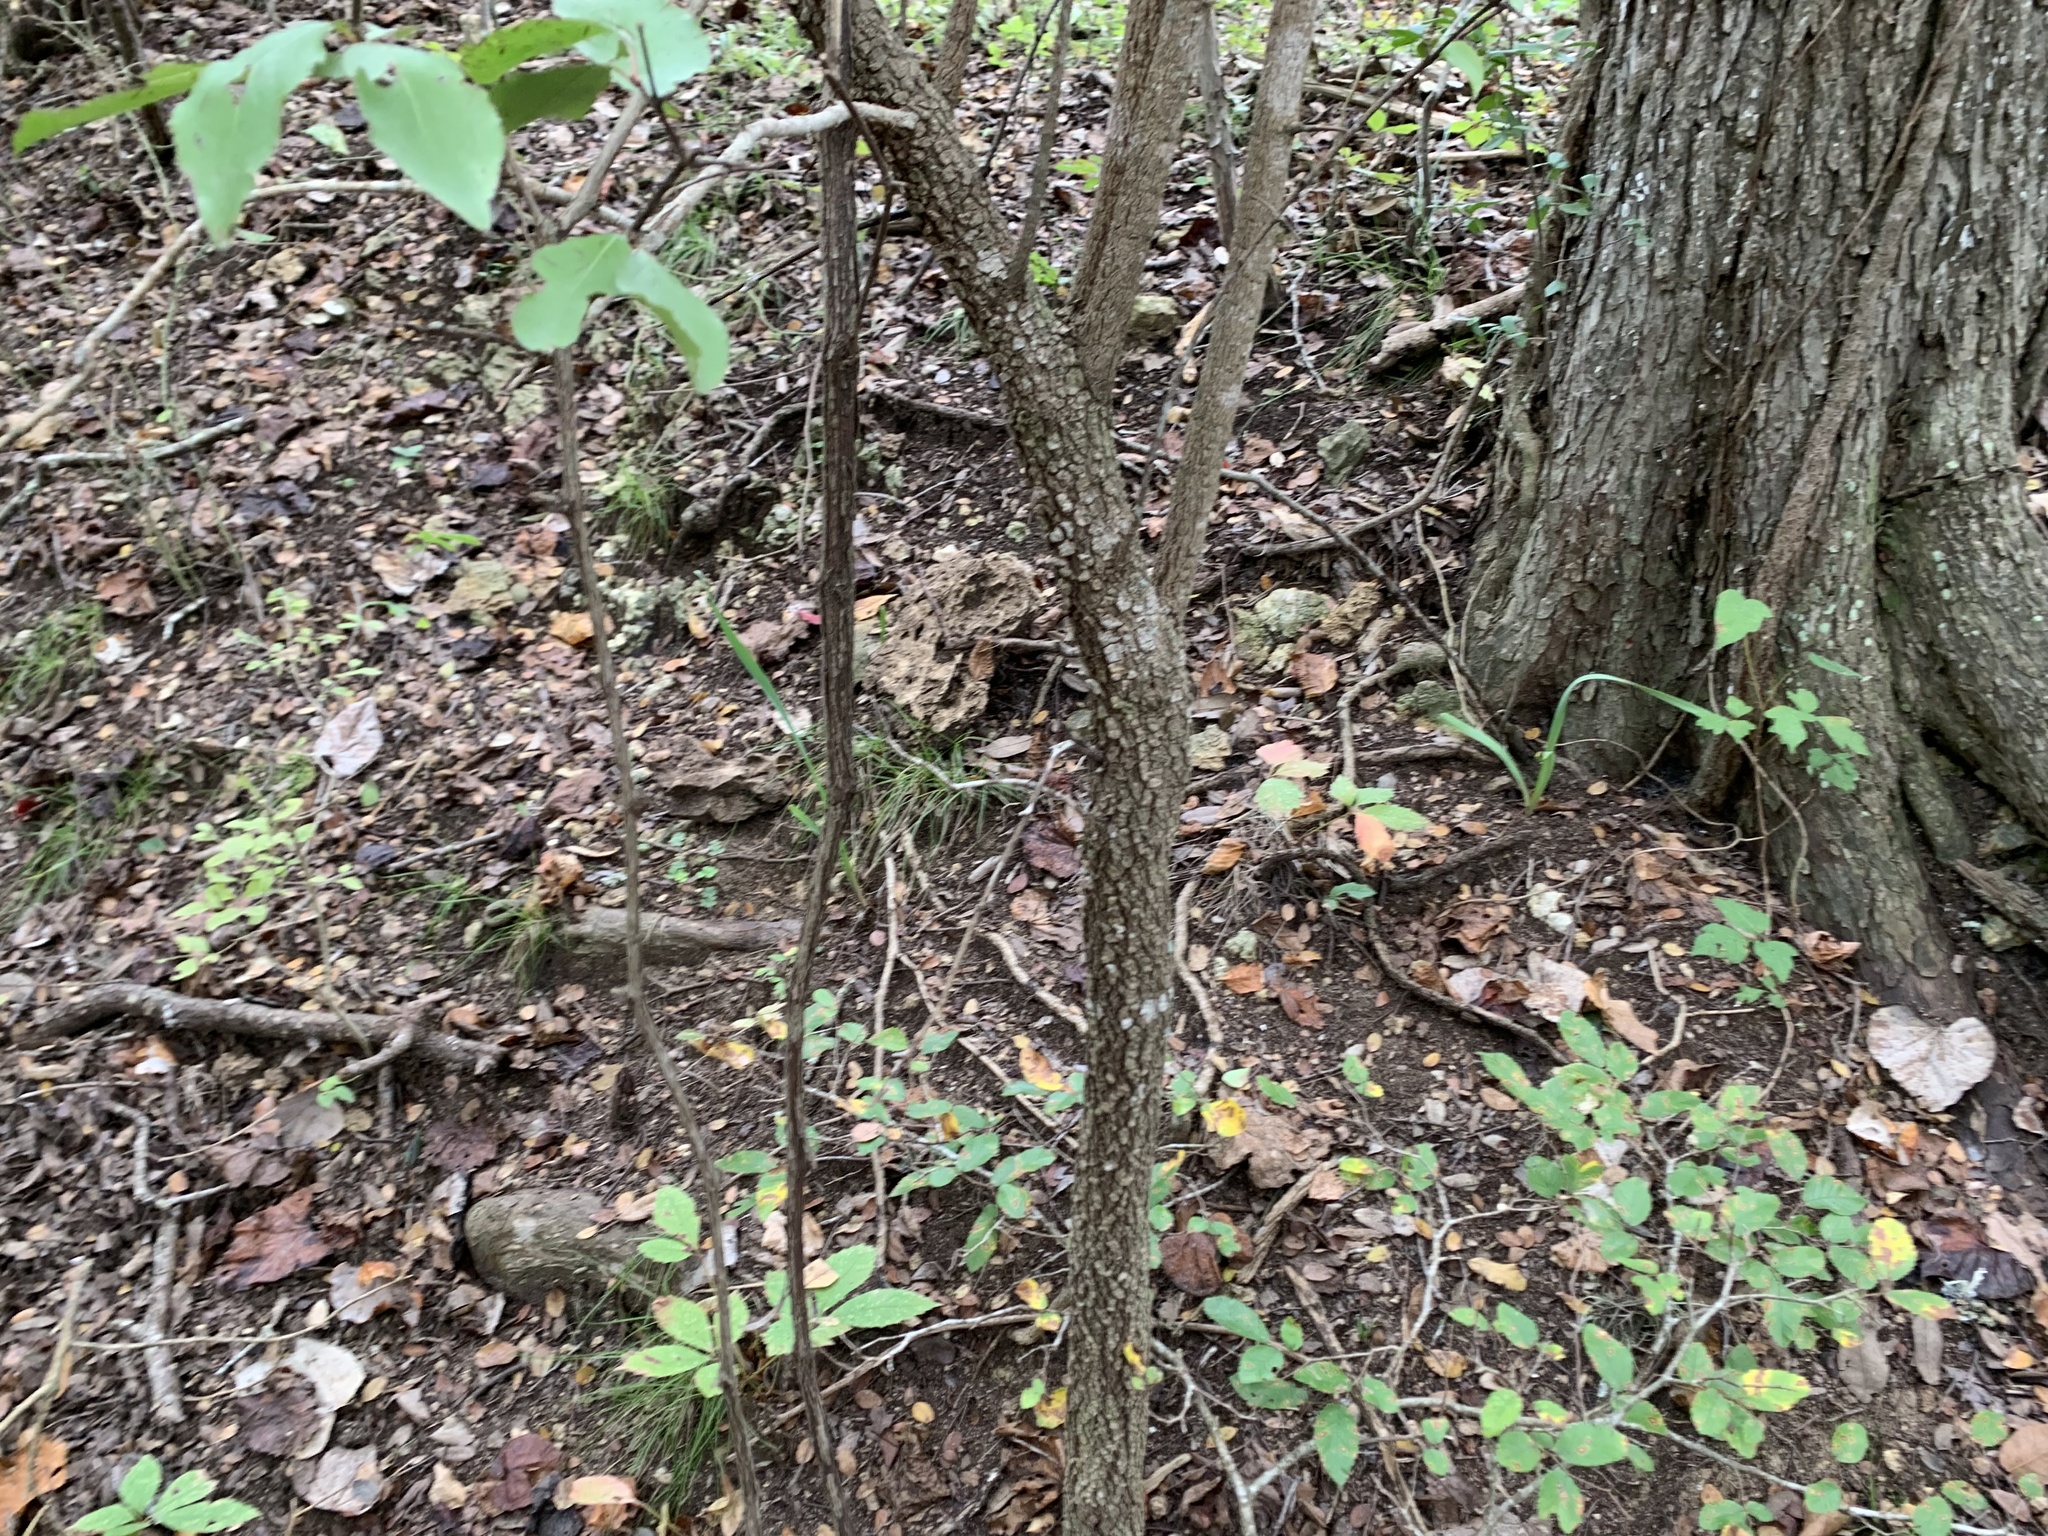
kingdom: Plantae
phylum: Tracheophyta
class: Magnoliopsida
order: Dipsacales
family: Viburnaceae
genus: Viburnum
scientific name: Viburnum rufidulum
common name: Blue haw
